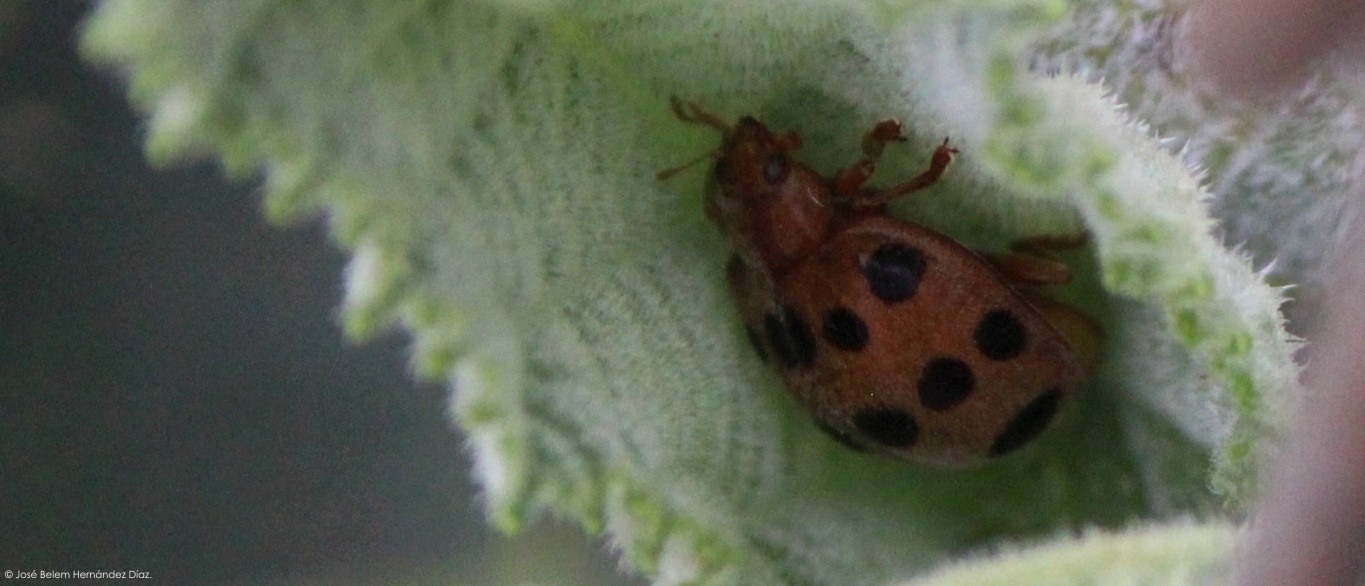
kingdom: Animalia
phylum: Arthropoda
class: Insecta
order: Coleoptera
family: Coccinellidae
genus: Epilachna
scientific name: Epilachna tredecimnotata
